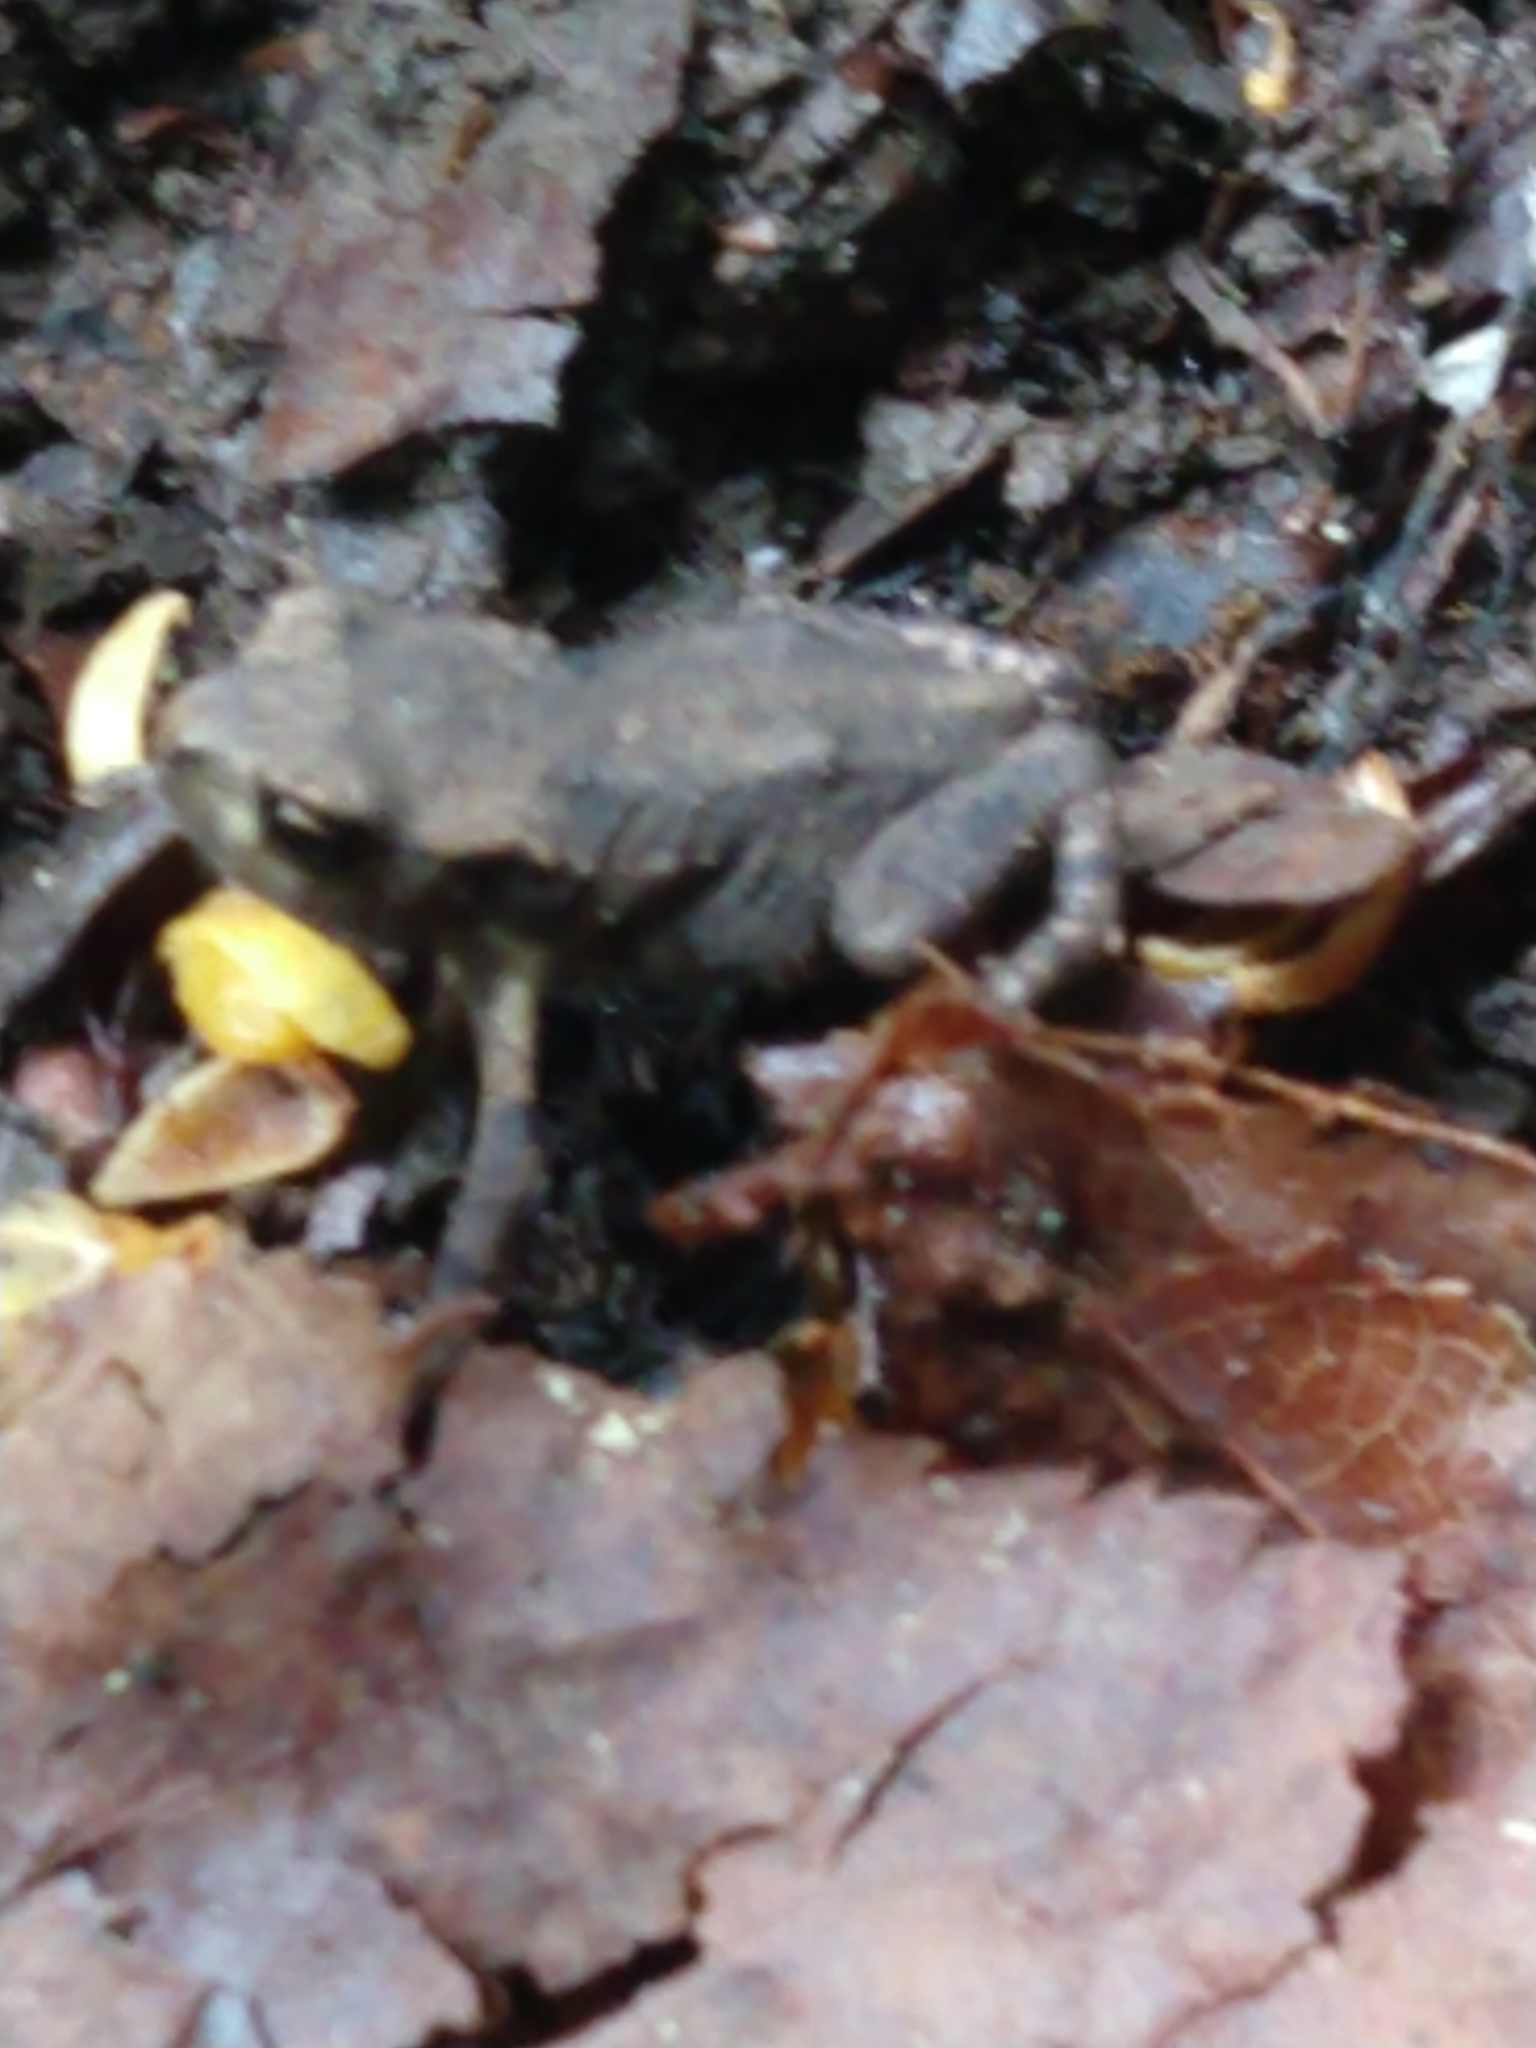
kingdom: Animalia
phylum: Chordata
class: Amphibia
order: Anura
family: Bufonidae
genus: Bufo
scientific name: Bufo bufo
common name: Common toad
